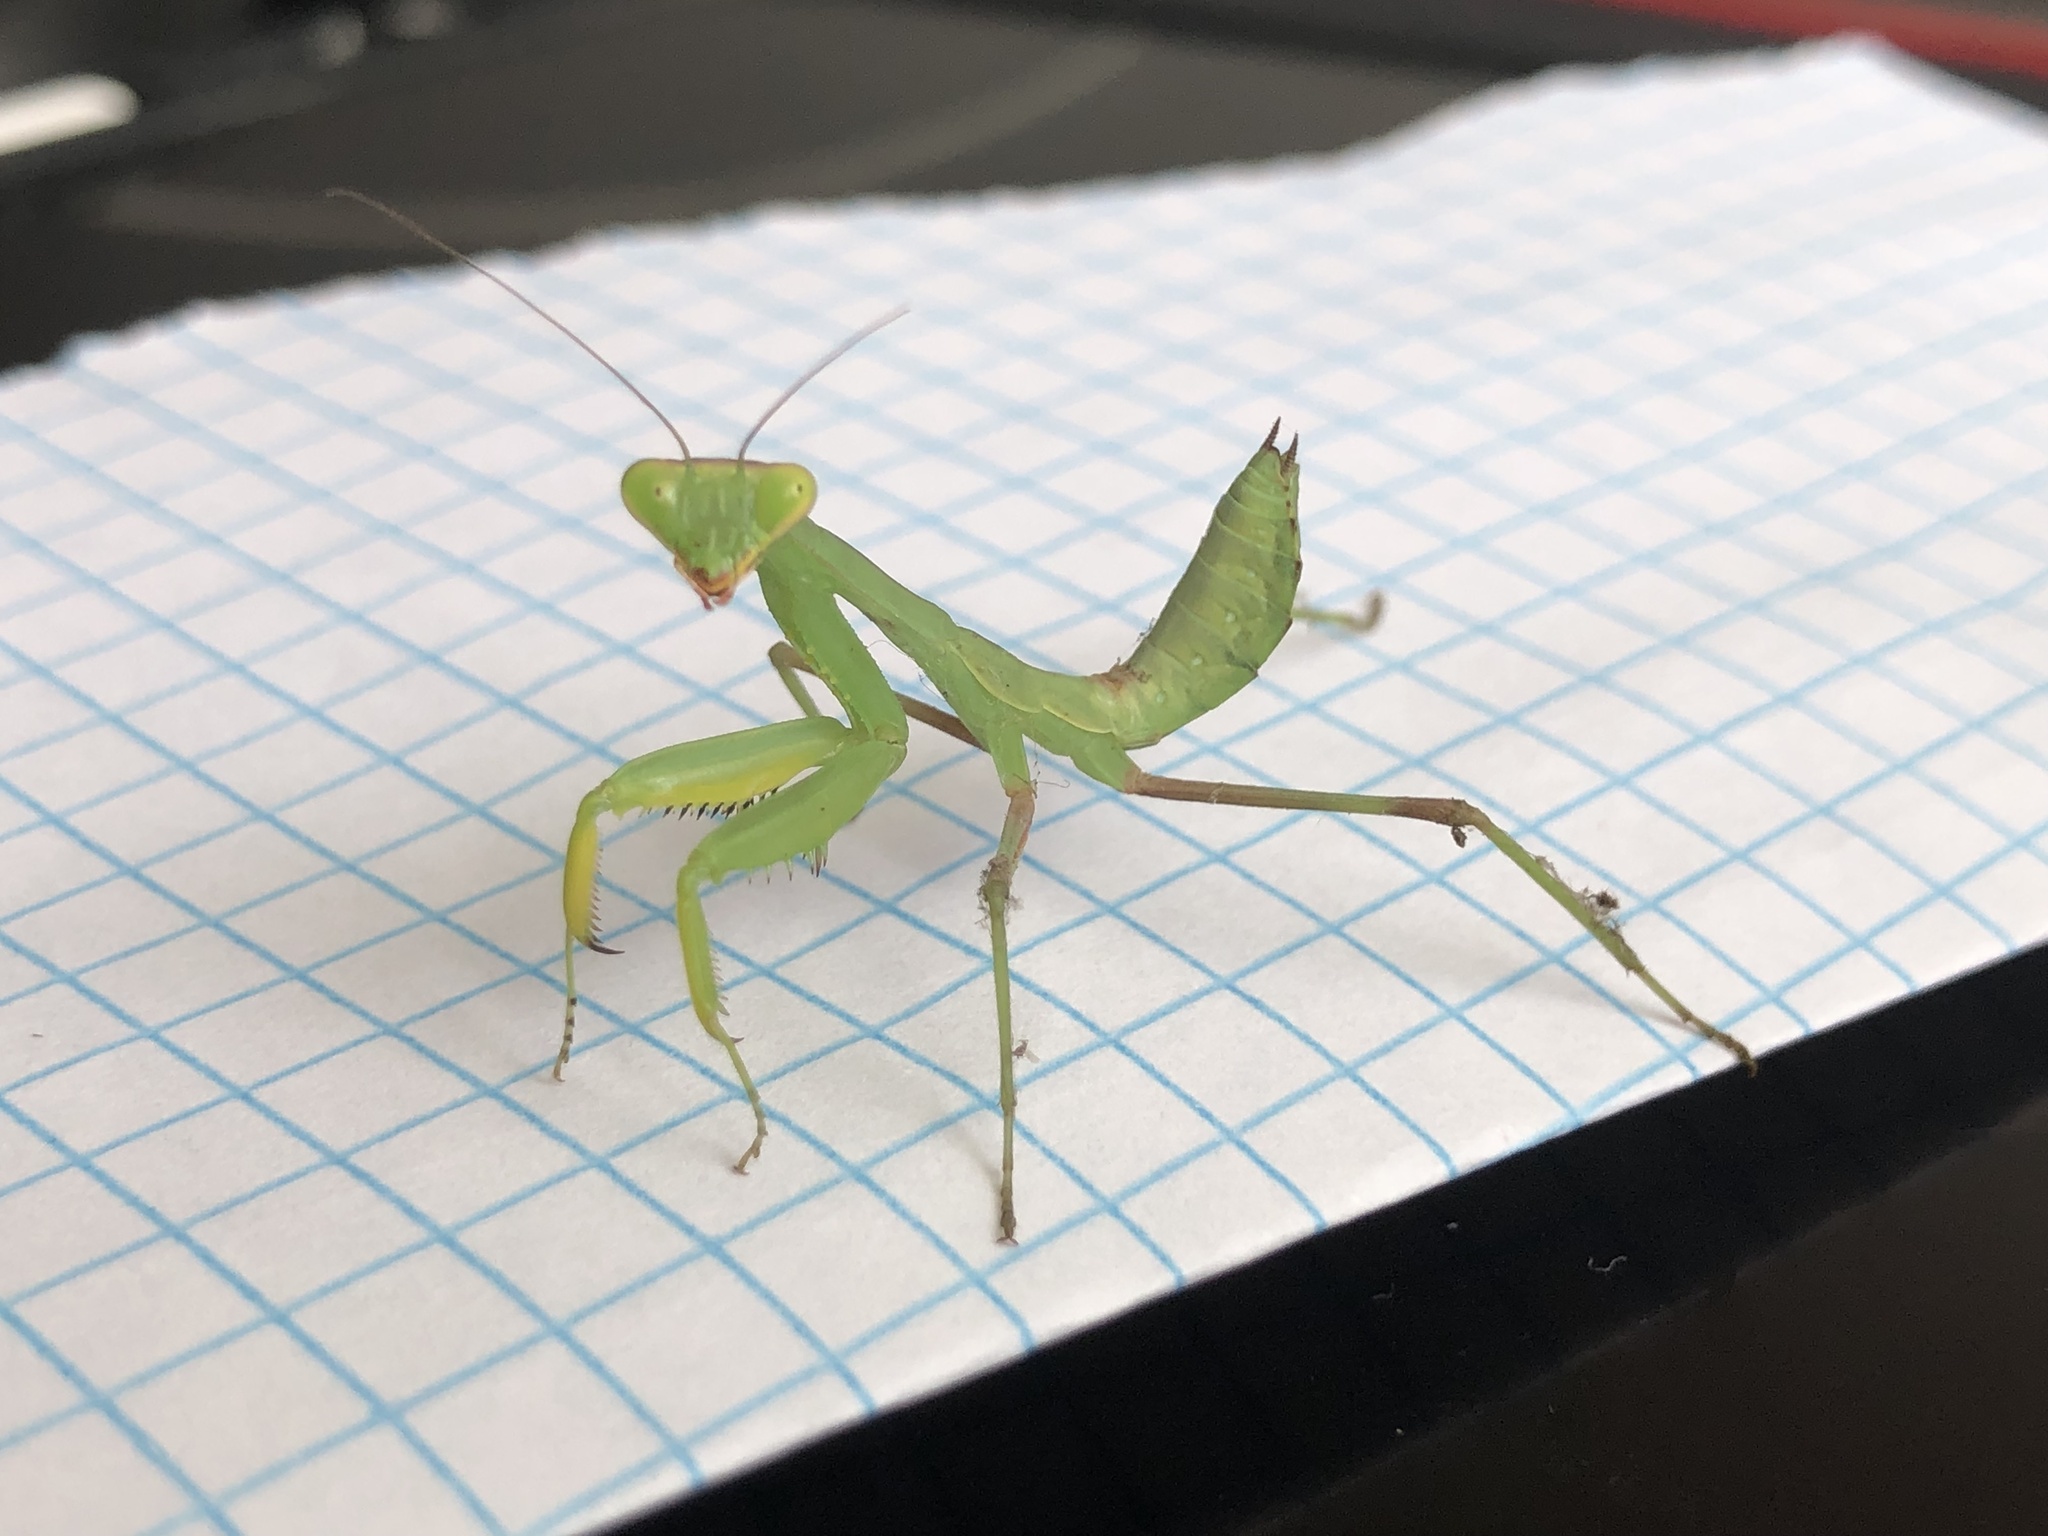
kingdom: Animalia
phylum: Arthropoda
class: Insecta
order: Mantodea
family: Mantidae
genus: Hierodula
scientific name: Hierodula transcaucasica
